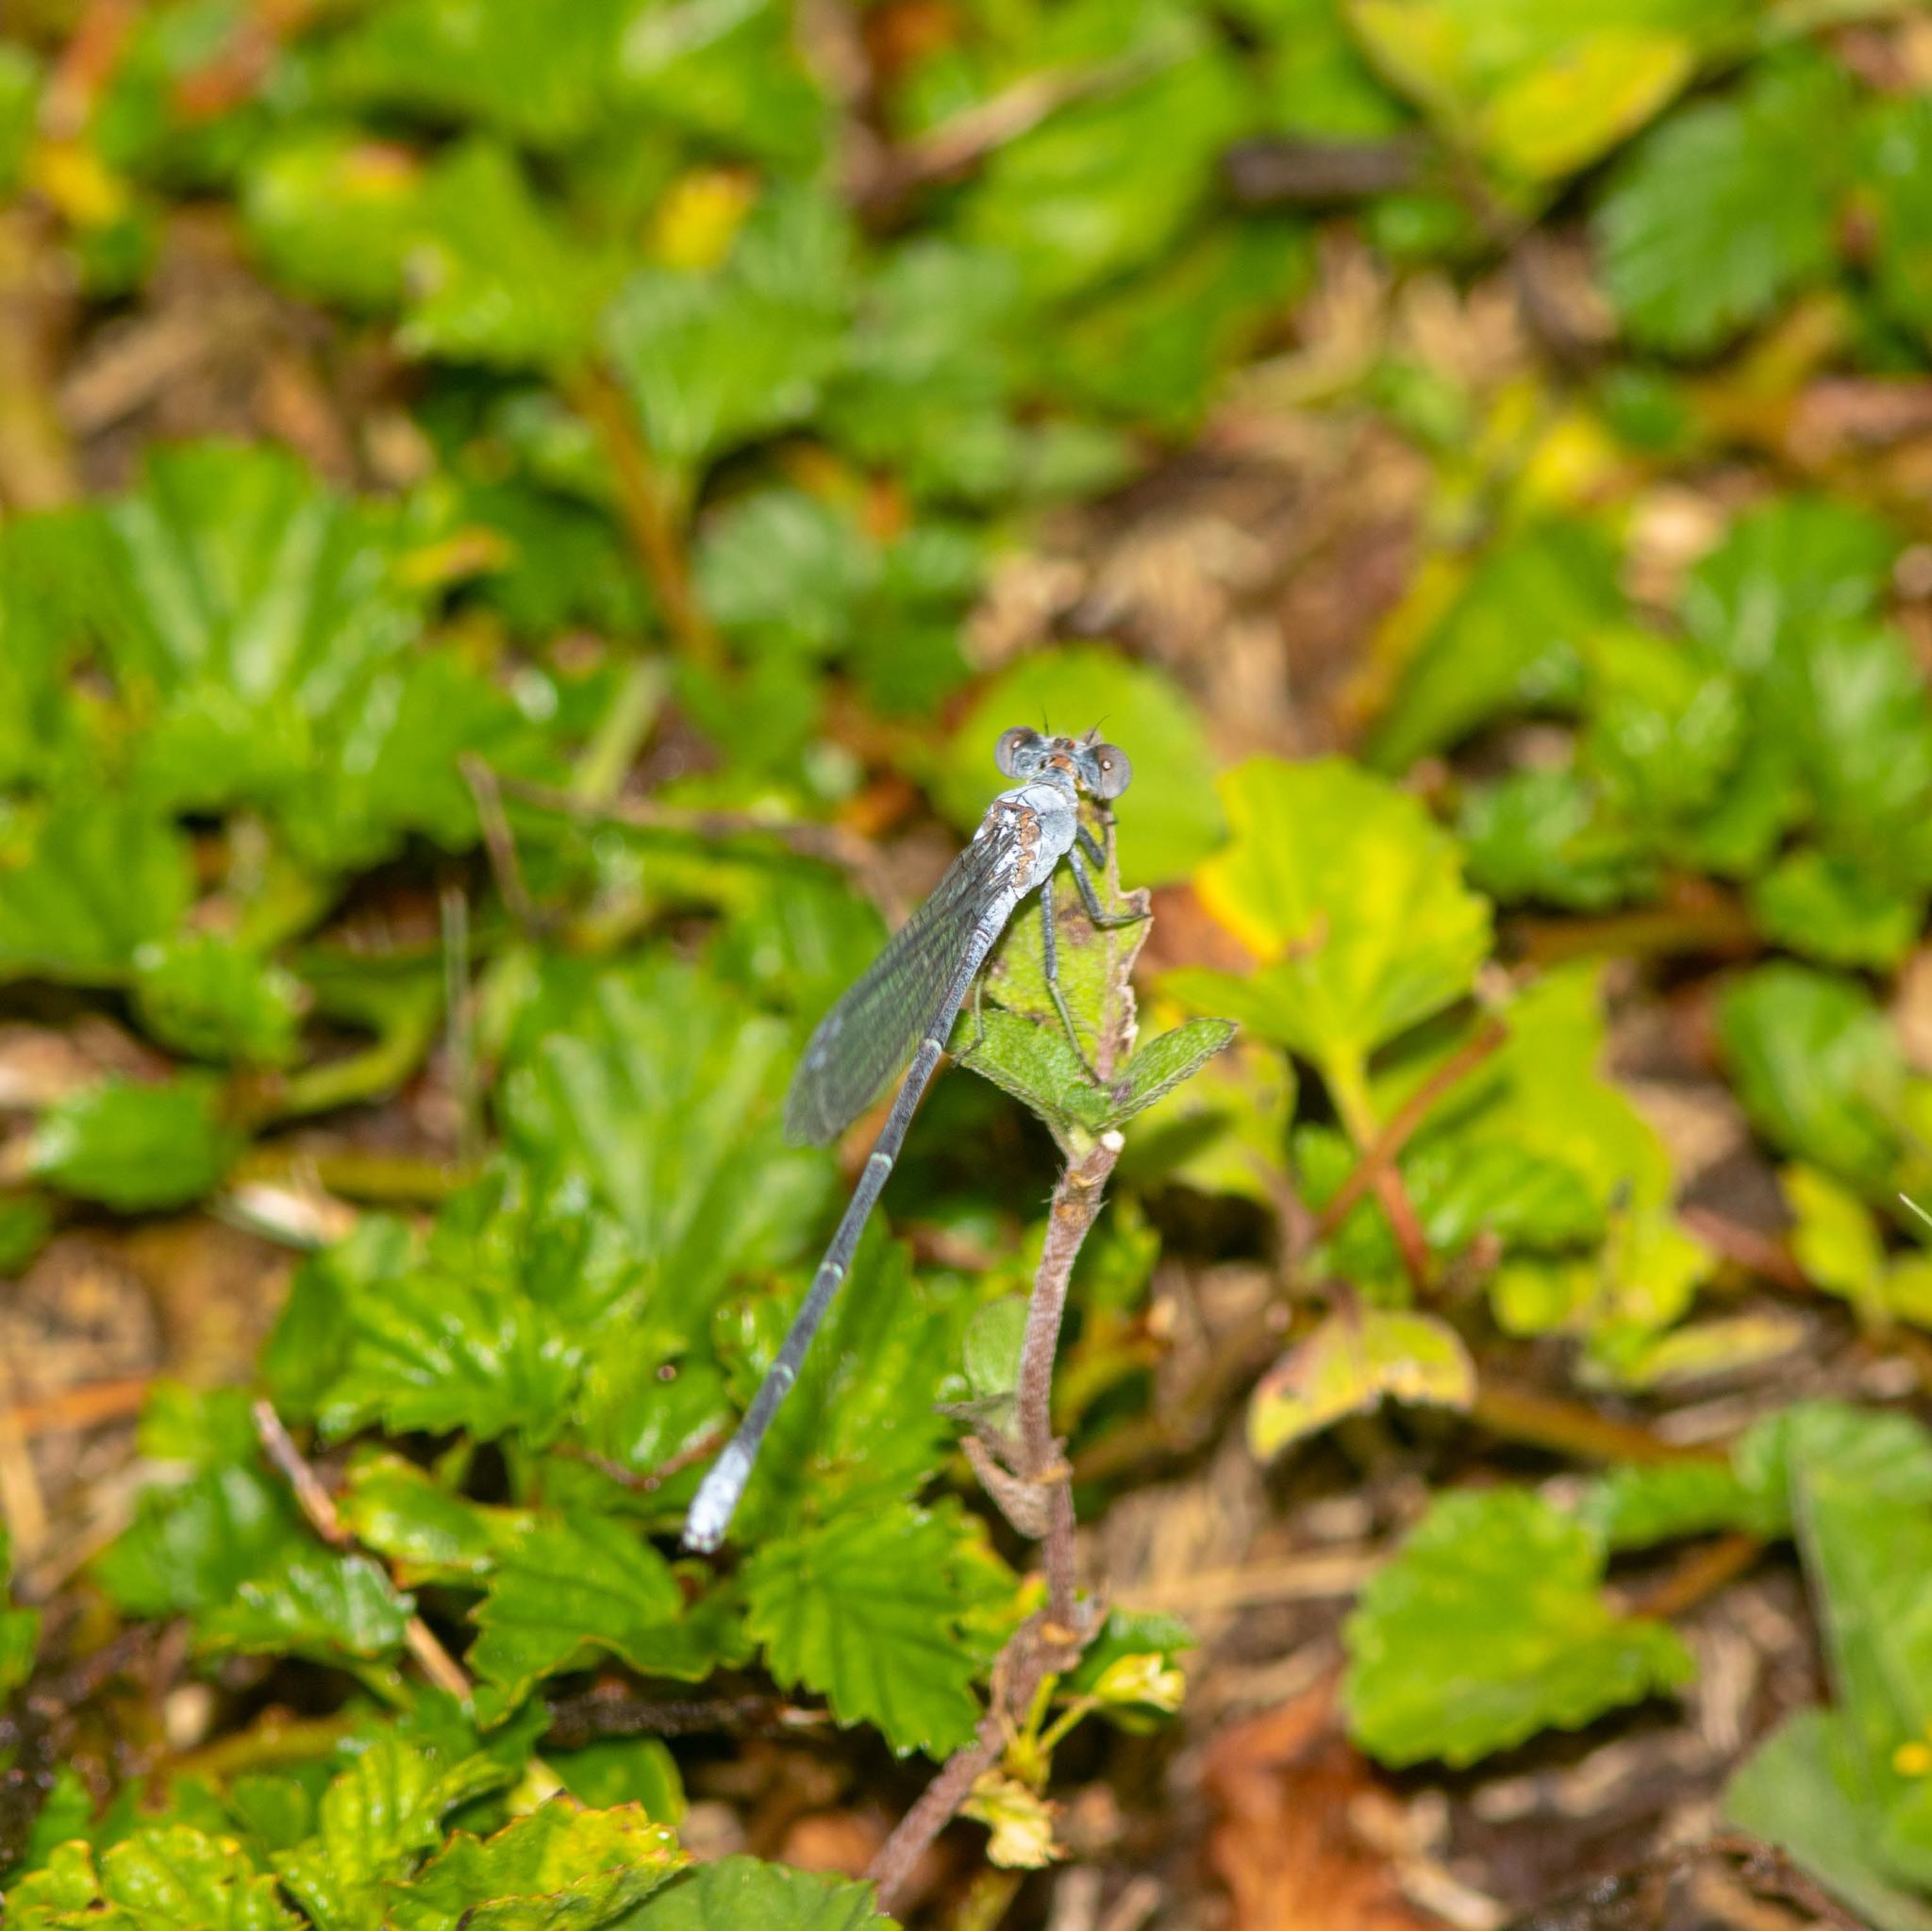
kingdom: Animalia
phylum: Arthropoda
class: Insecta
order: Odonata
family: Coenagrionidae
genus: Argia
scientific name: Argia moesta
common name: Powdered dancer
